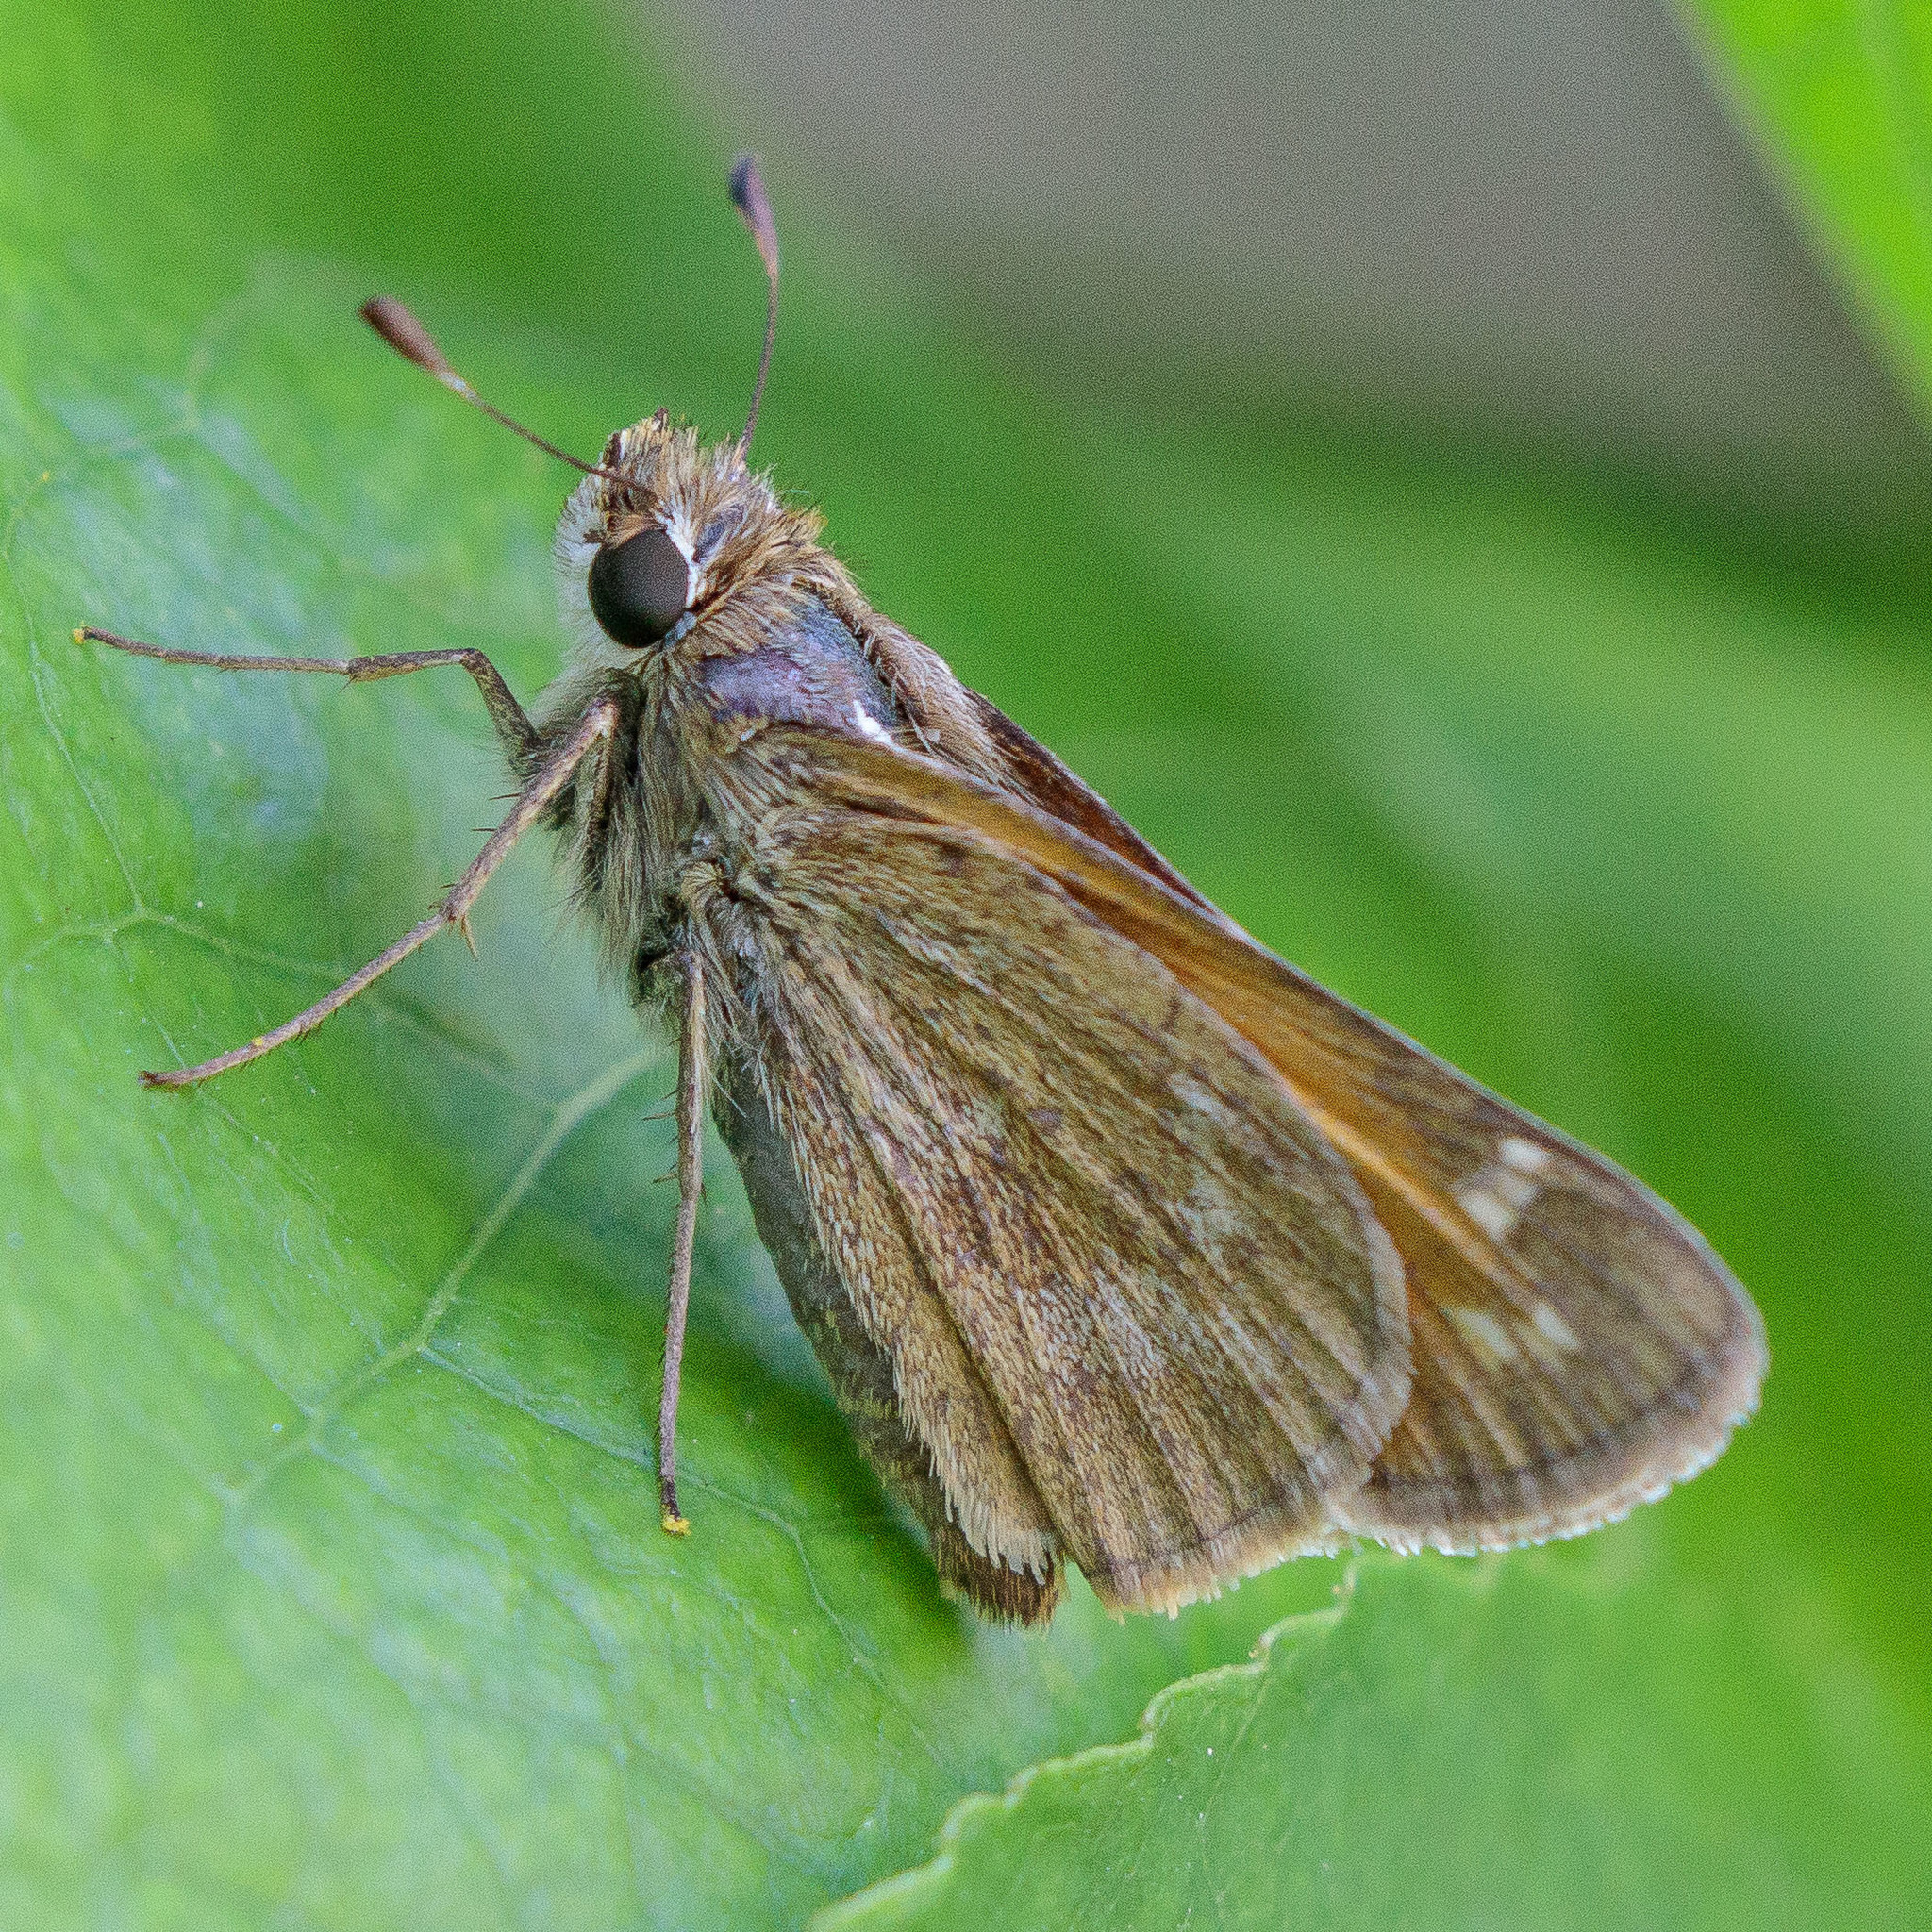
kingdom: Animalia
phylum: Arthropoda
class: Insecta
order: Lepidoptera
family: Hesperiidae
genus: Atalopedes
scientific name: Atalopedes
